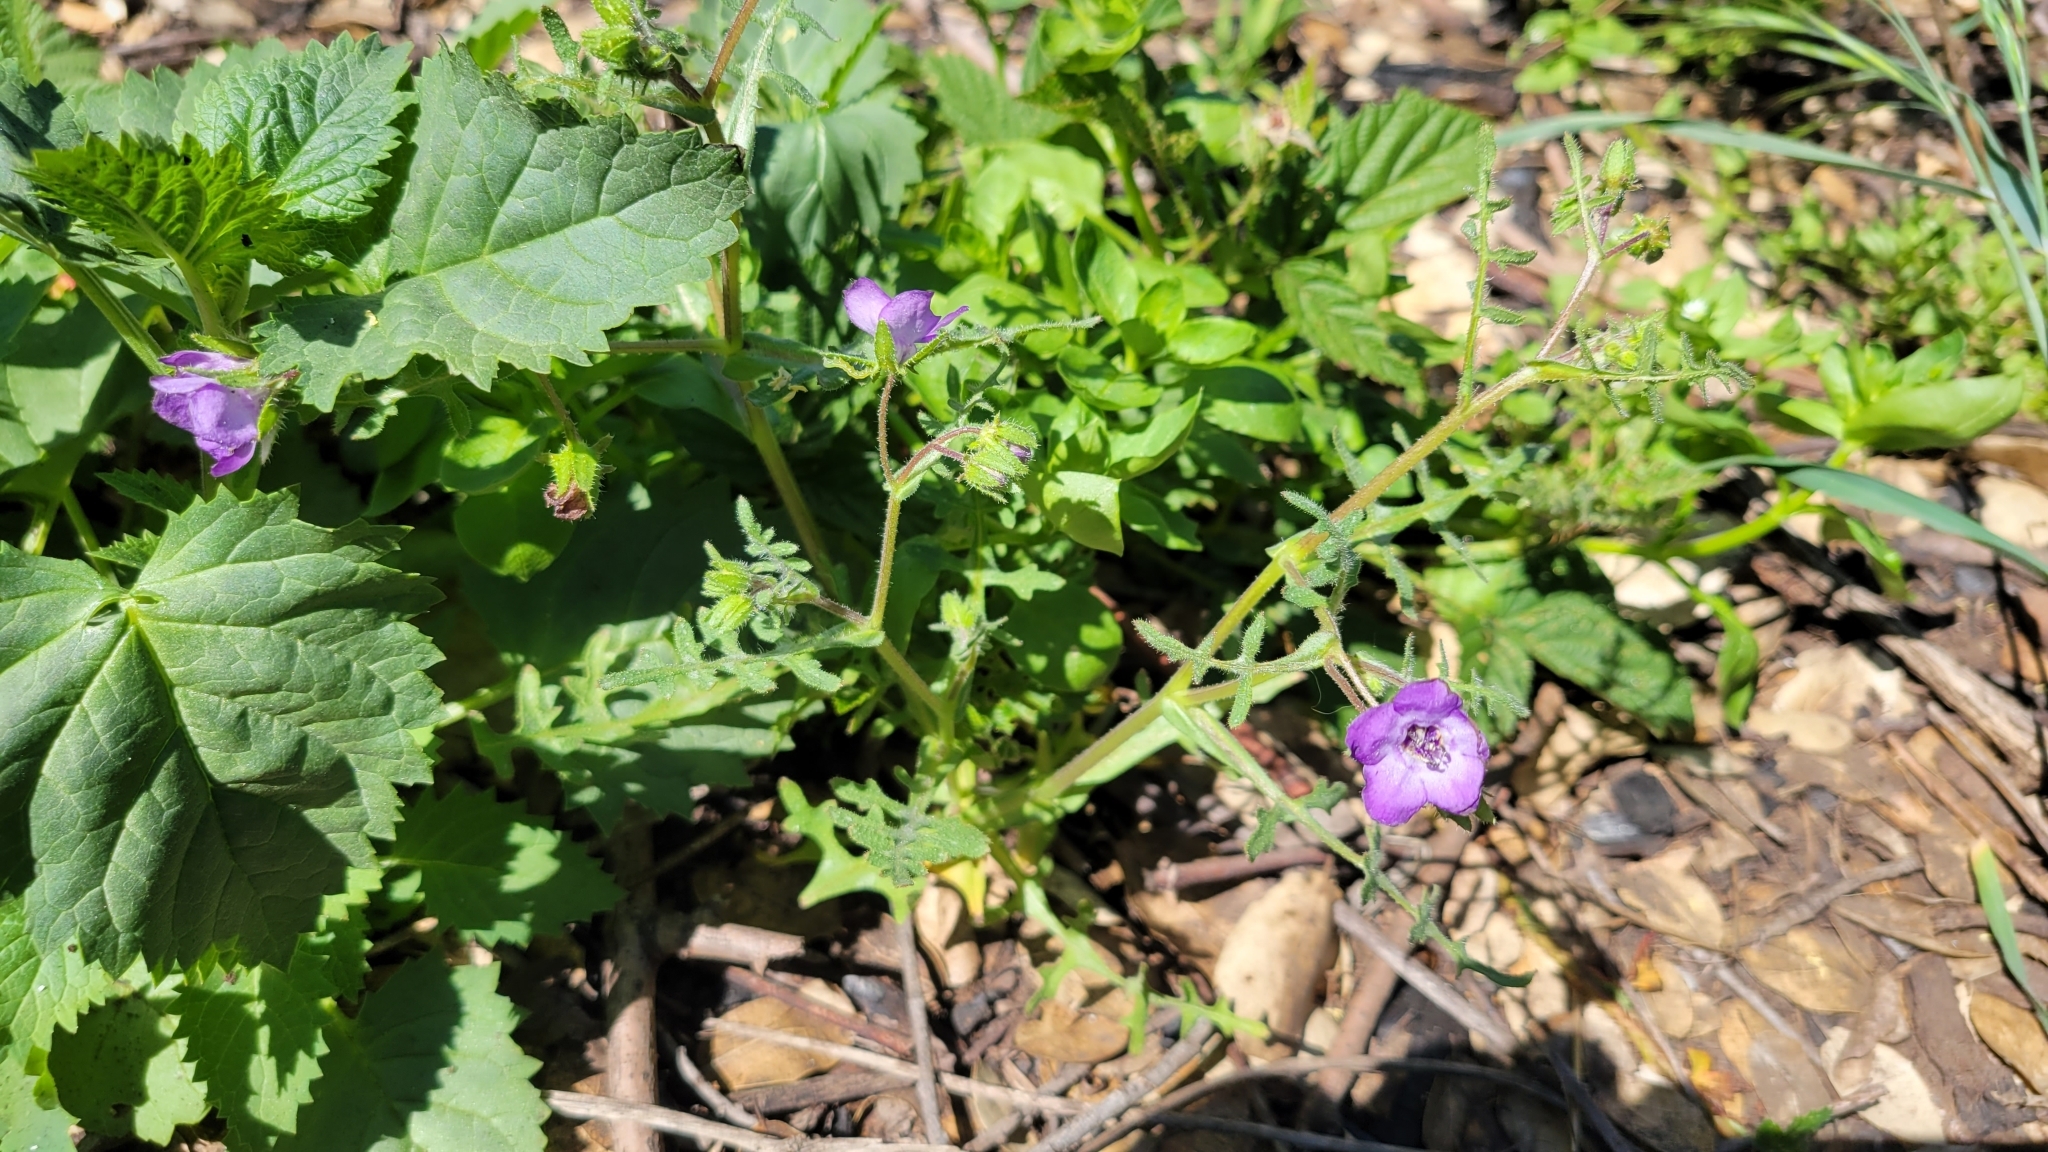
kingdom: Plantae
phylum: Tracheophyta
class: Magnoliopsida
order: Boraginales
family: Hydrophyllaceae
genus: Pholistoma
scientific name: Pholistoma auritum
